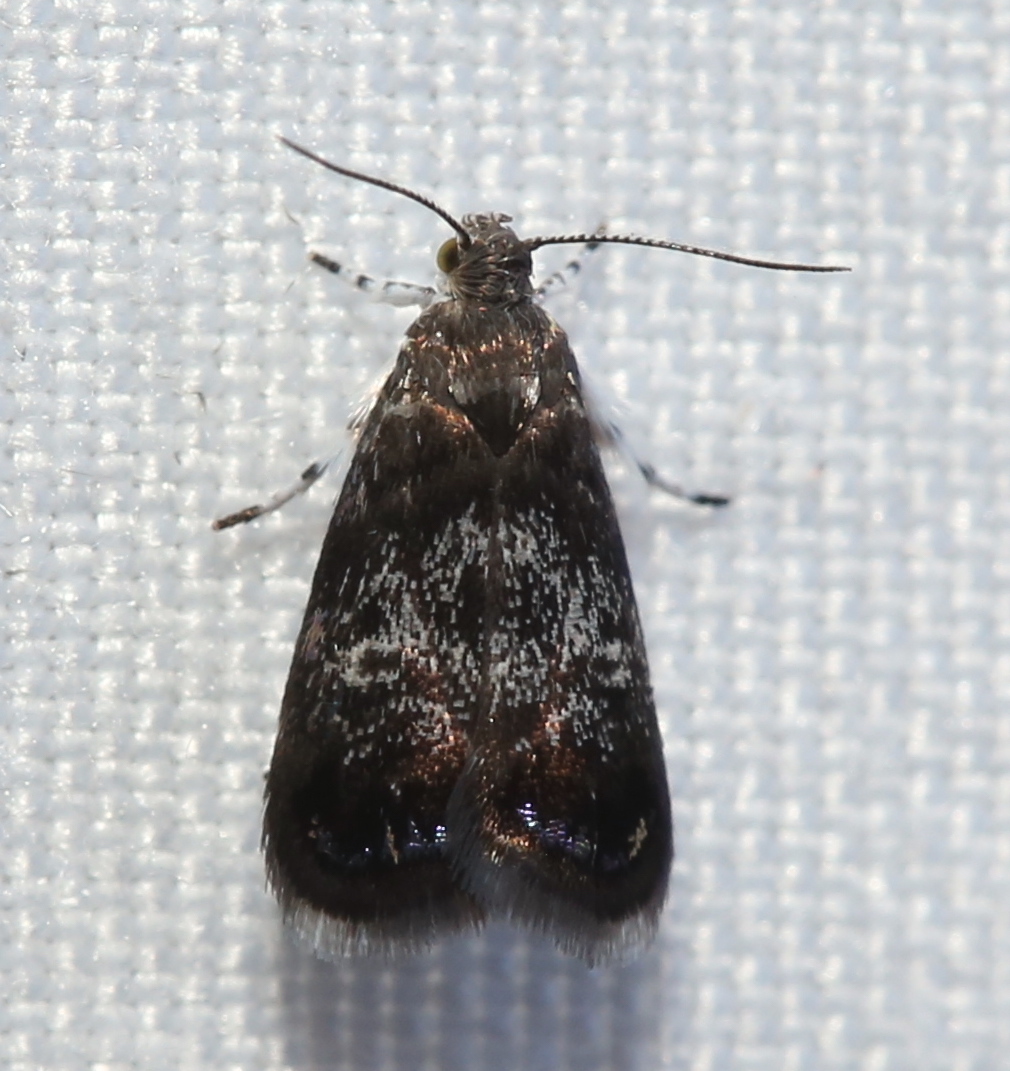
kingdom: Animalia
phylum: Arthropoda
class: Insecta
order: Lepidoptera
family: Choreutidae
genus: Brenthia
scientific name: Brenthia pavonacella
